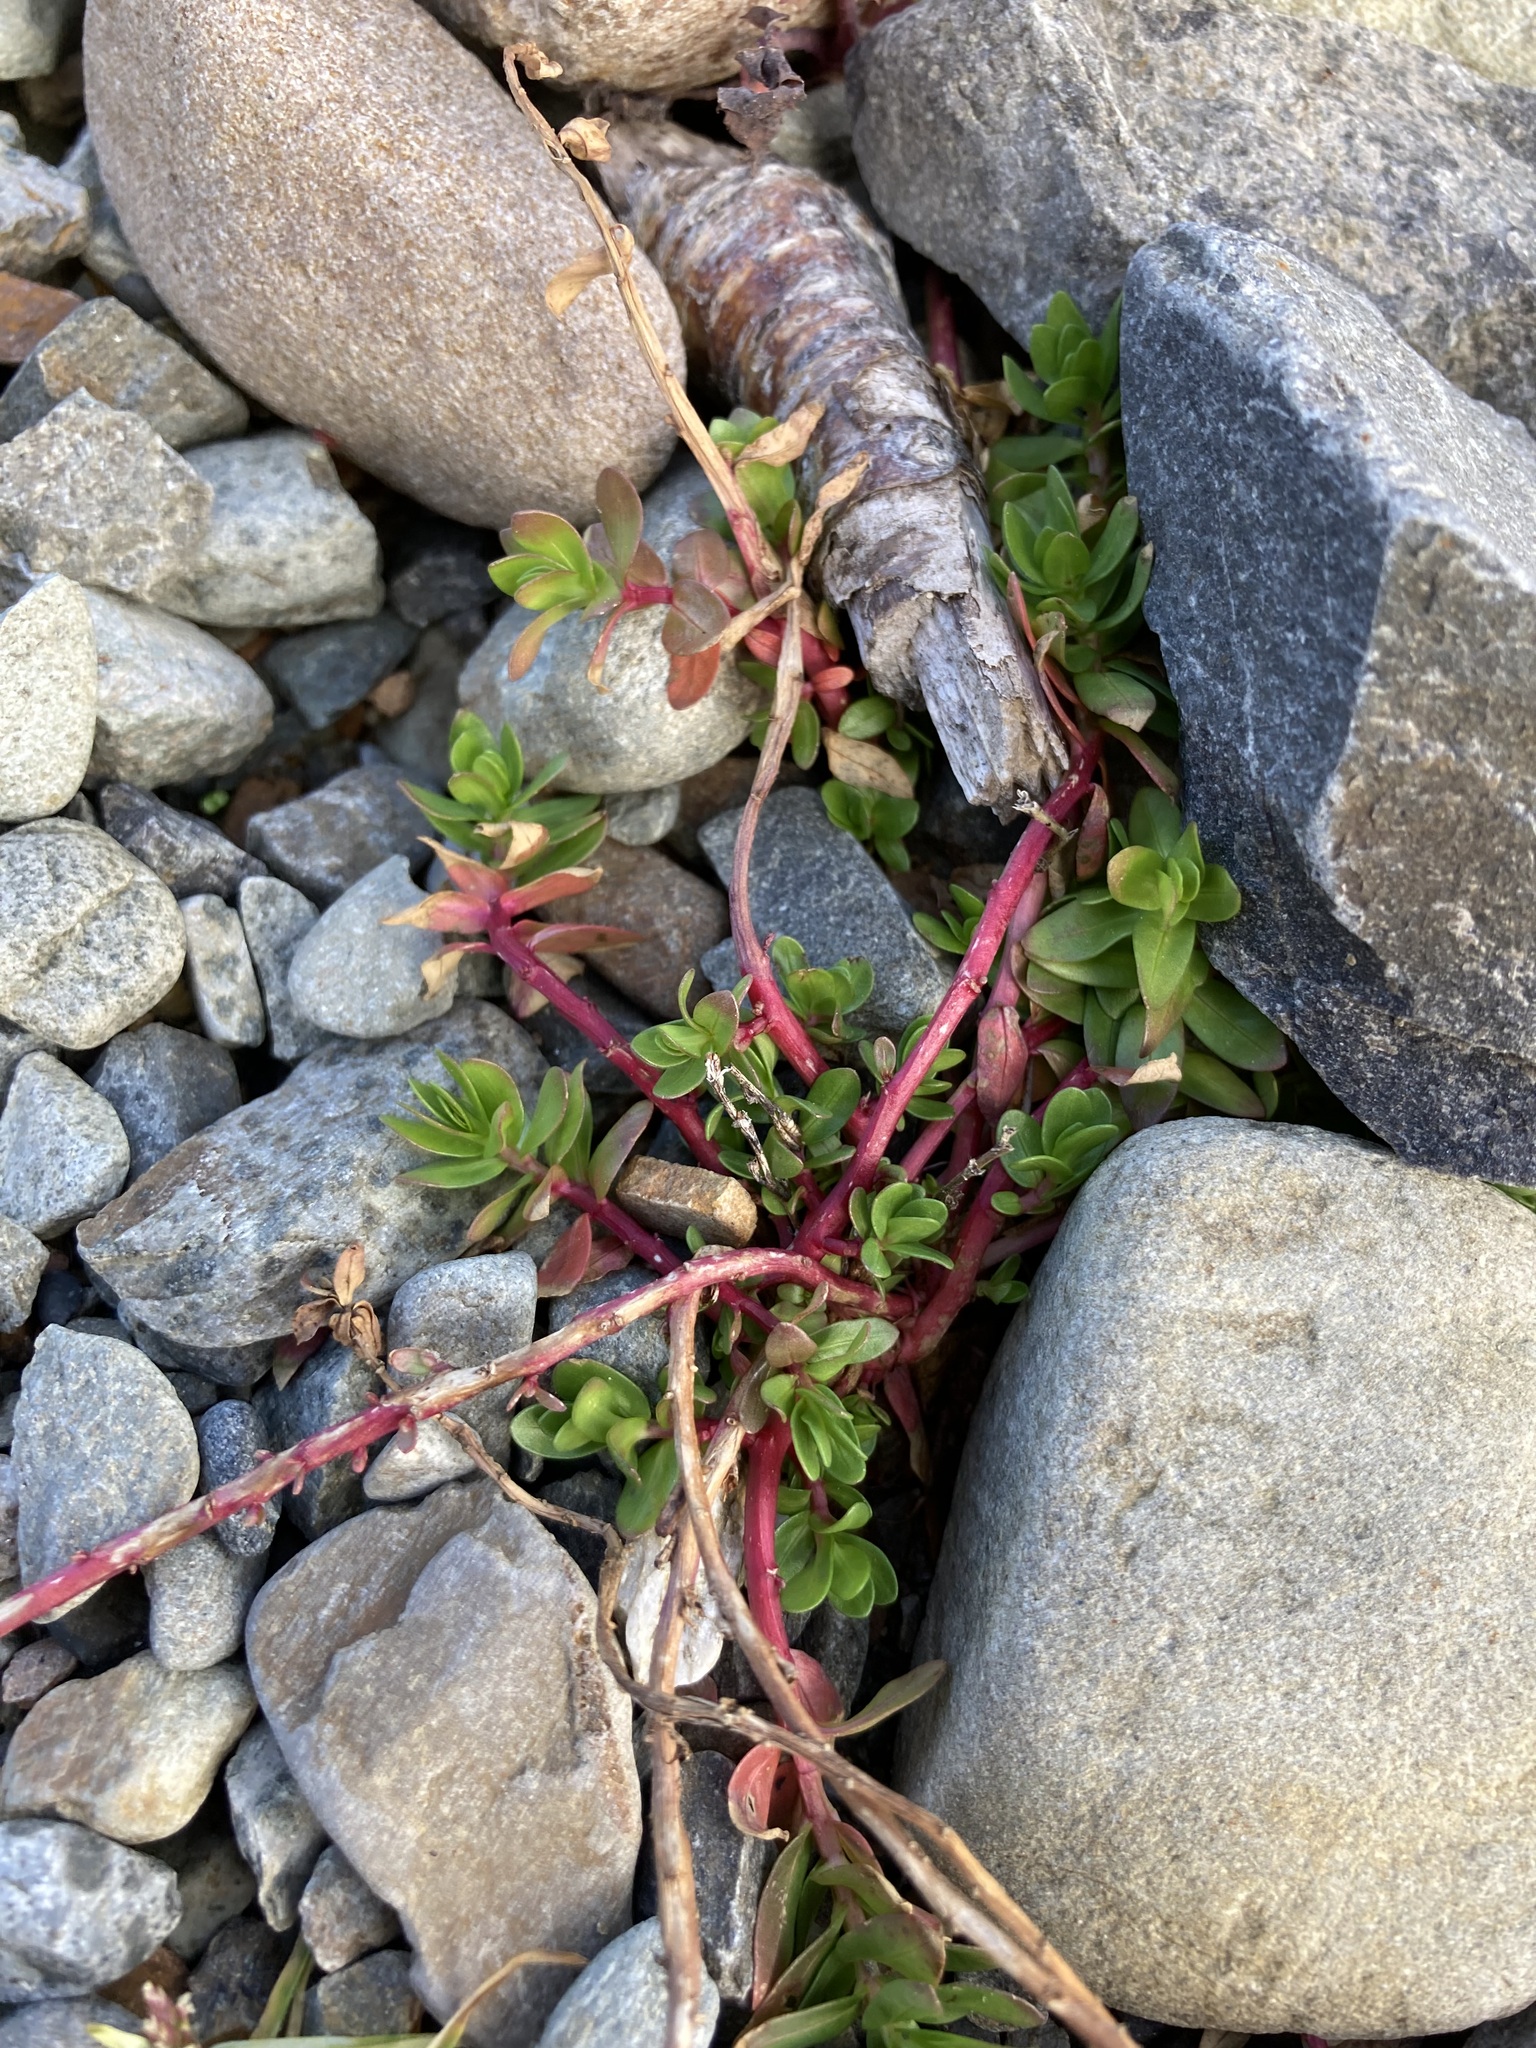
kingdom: Plantae
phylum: Tracheophyta
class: Magnoliopsida
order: Caryophyllales
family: Portulacaceae
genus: Portulaca
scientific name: Portulaca oleracea
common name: Common purslane
